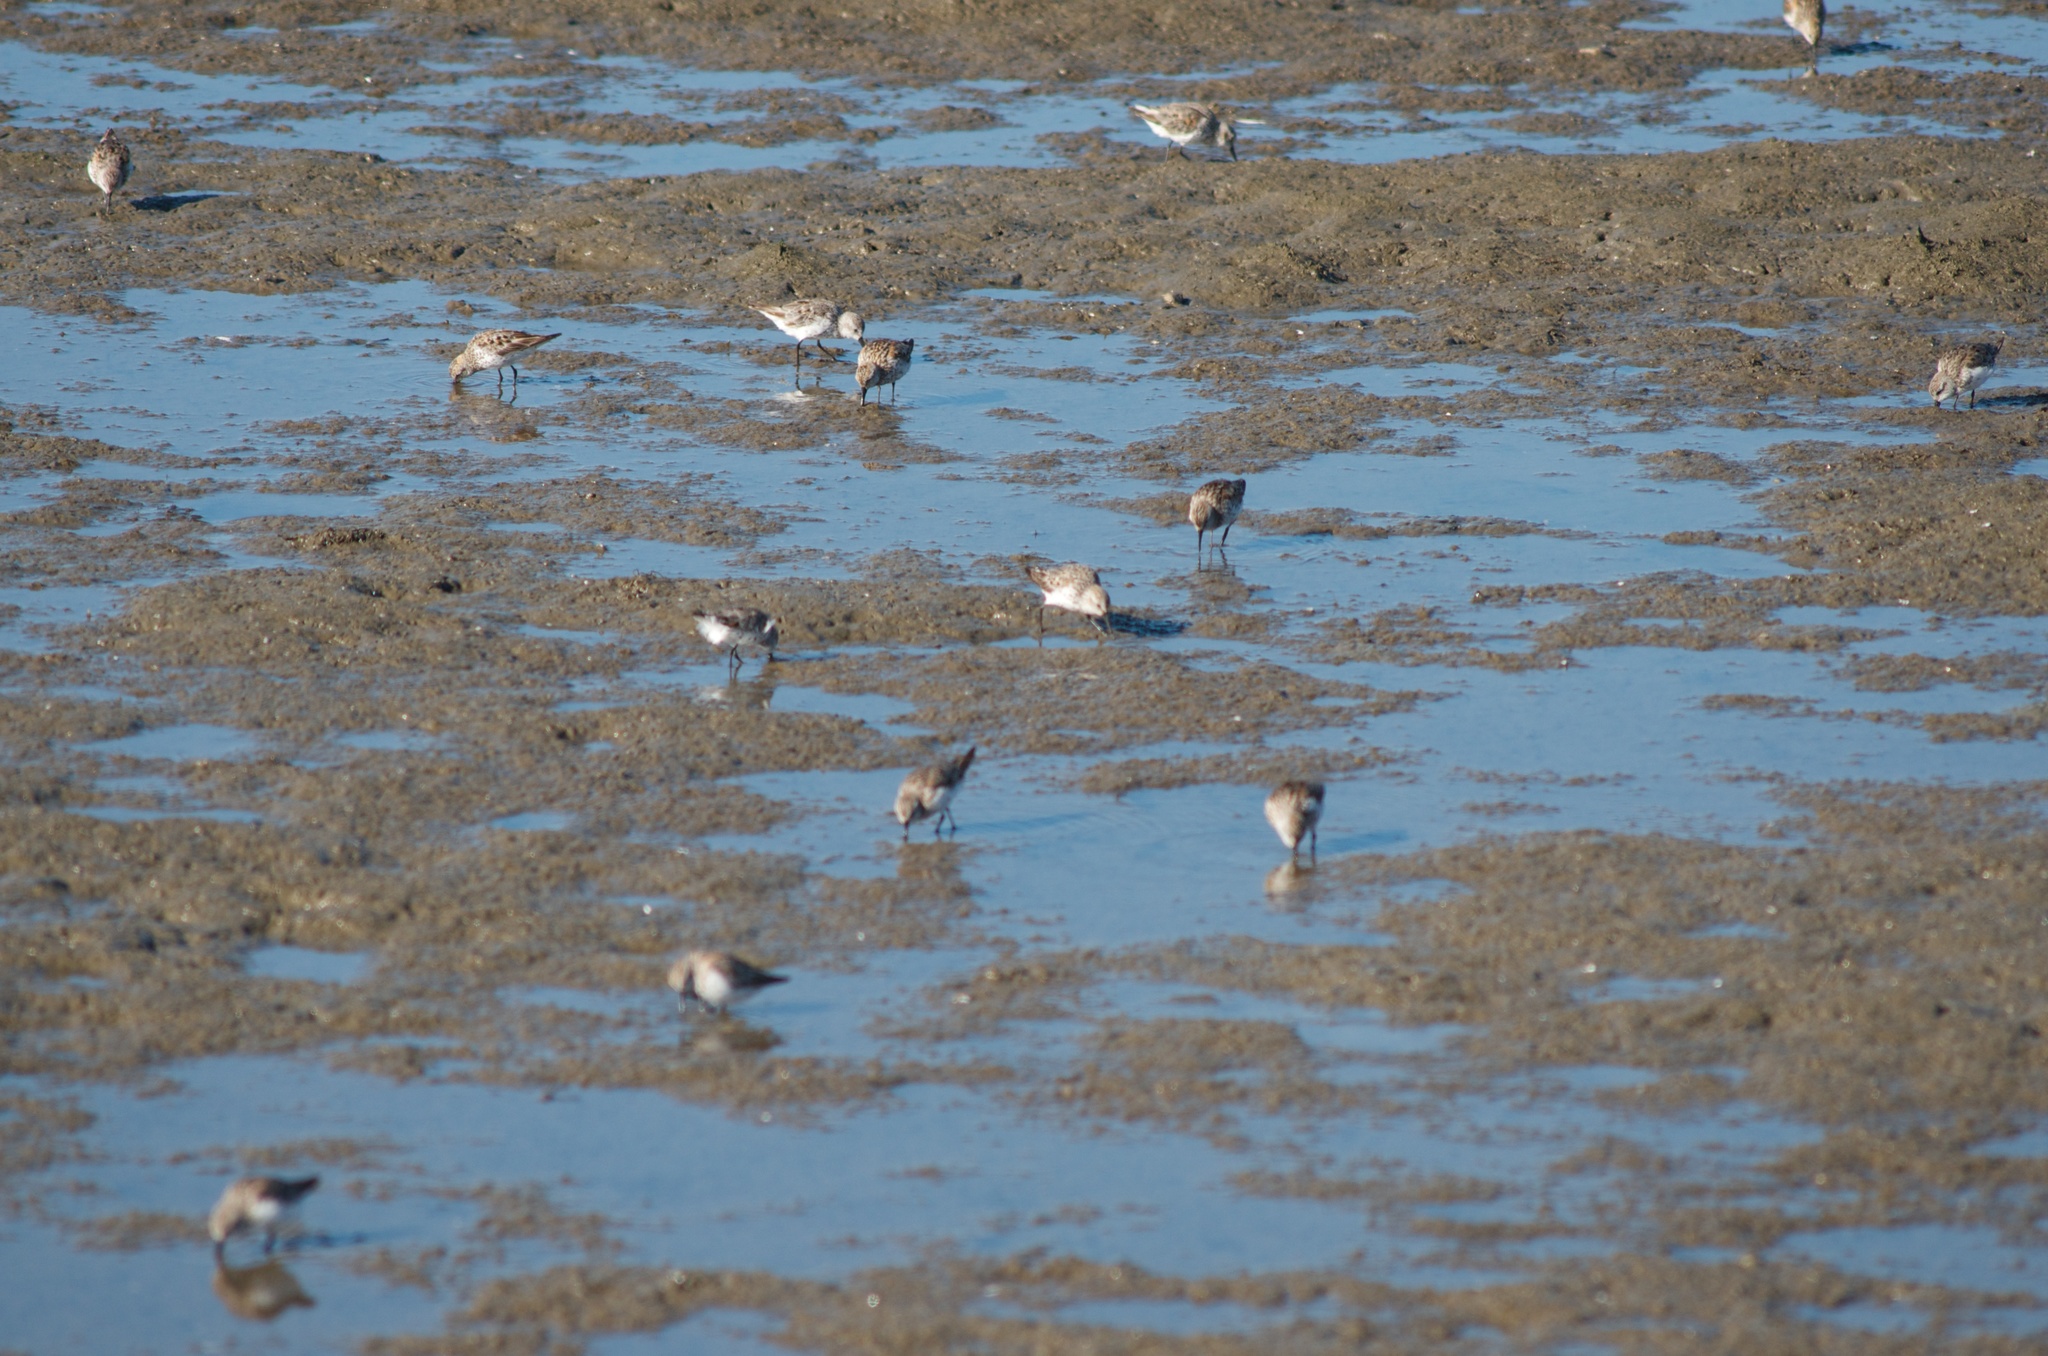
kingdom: Animalia
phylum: Chordata
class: Aves
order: Charadriiformes
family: Scolopacidae
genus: Calidris
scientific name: Calidris mauri
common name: Western sandpiper
